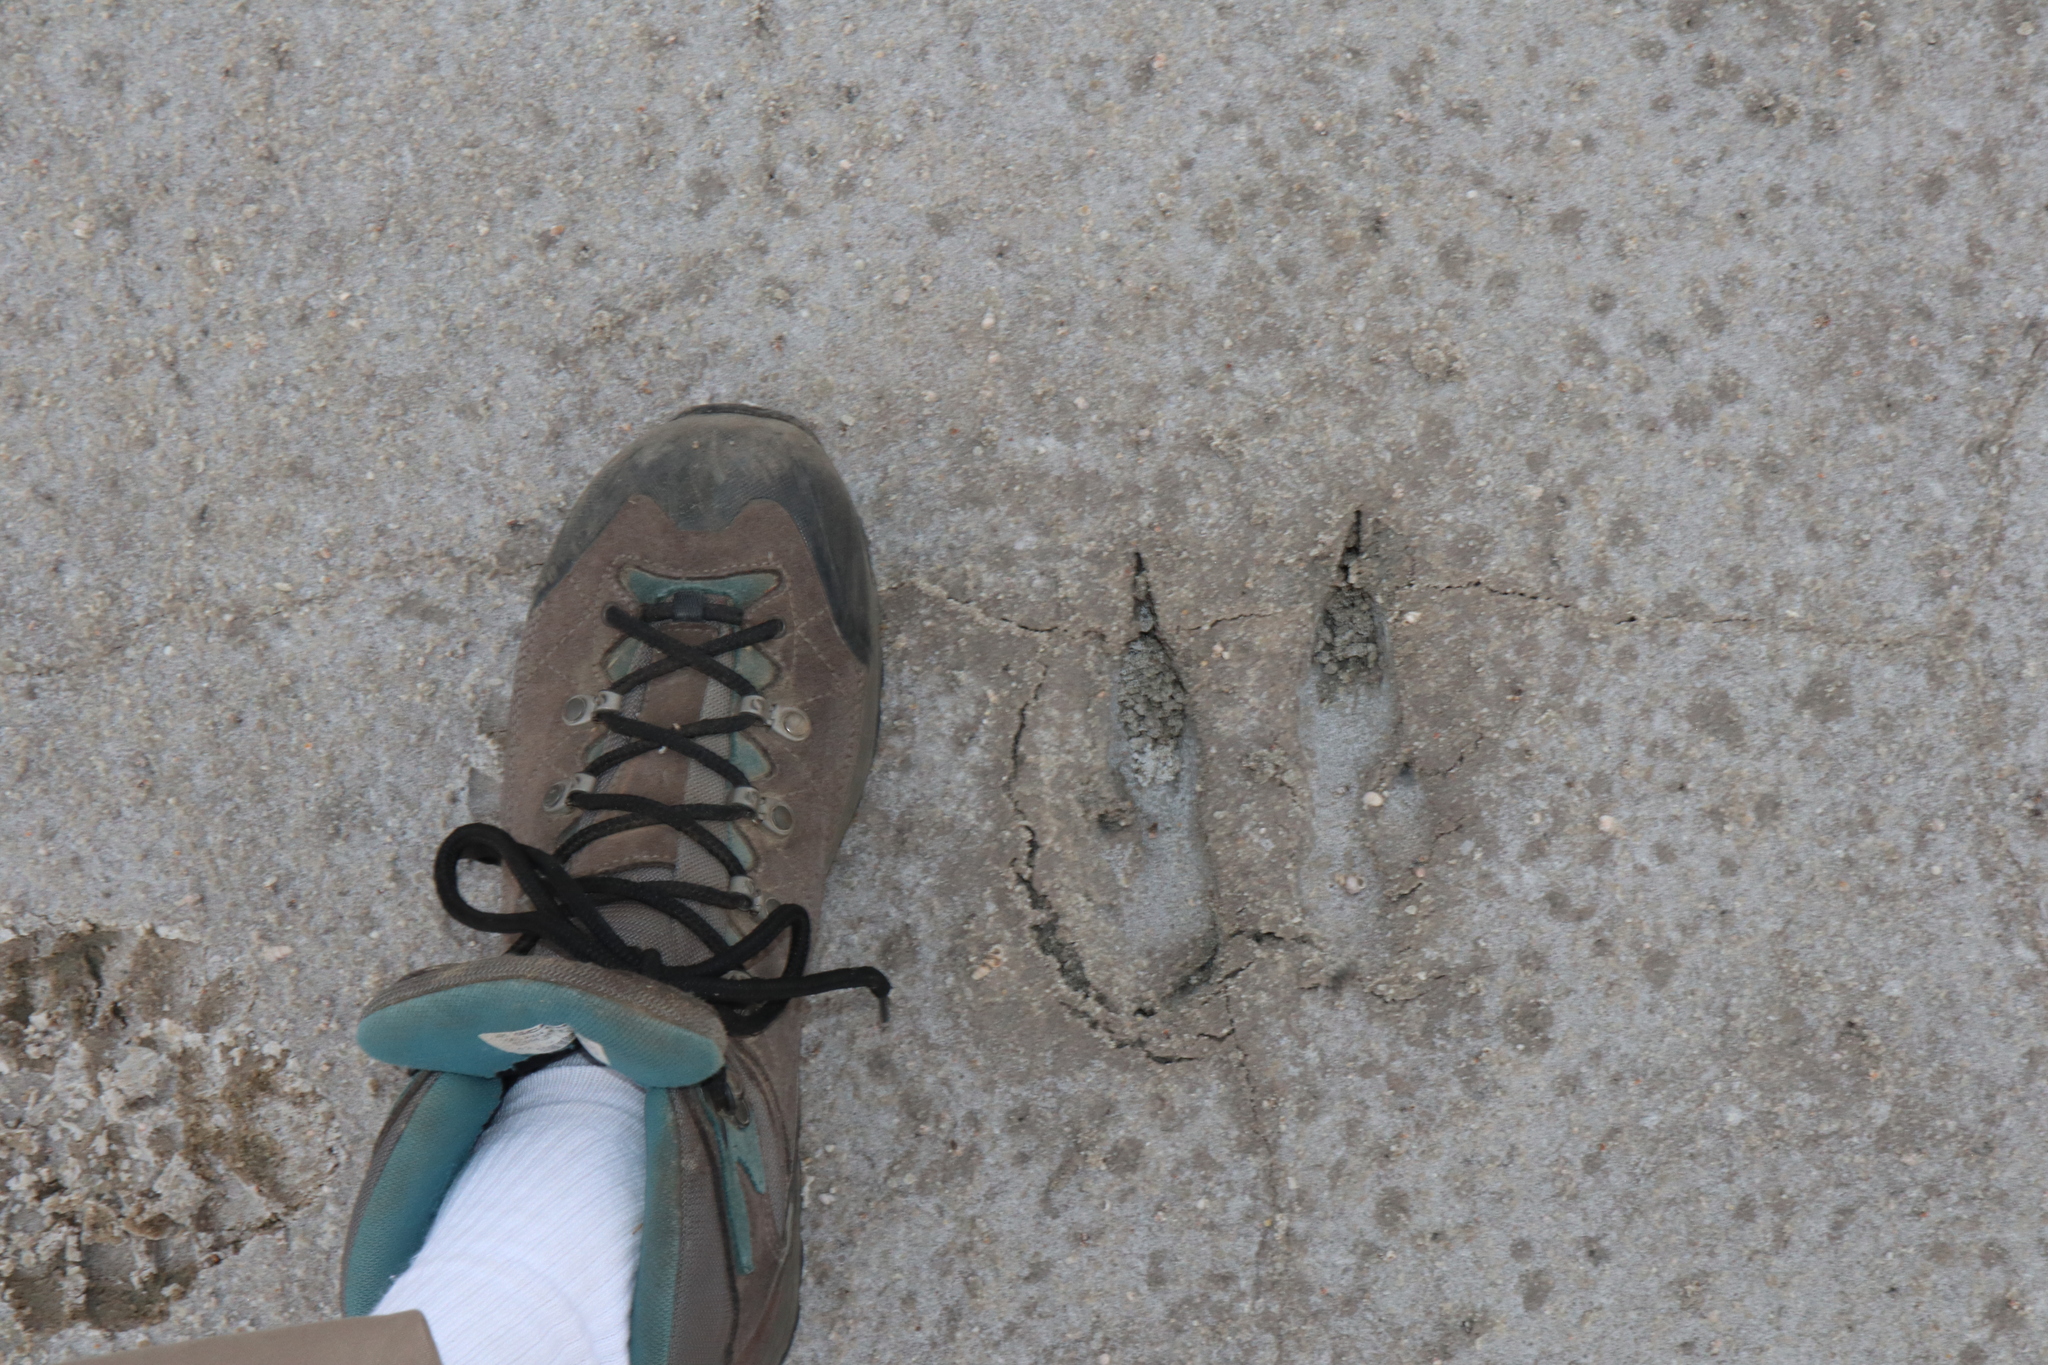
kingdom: Animalia
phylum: Chordata
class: Mammalia
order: Diprotodontia
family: Macropodidae
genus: Macropus
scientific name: Macropus fuliginosus
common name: Western grey kangaroo
